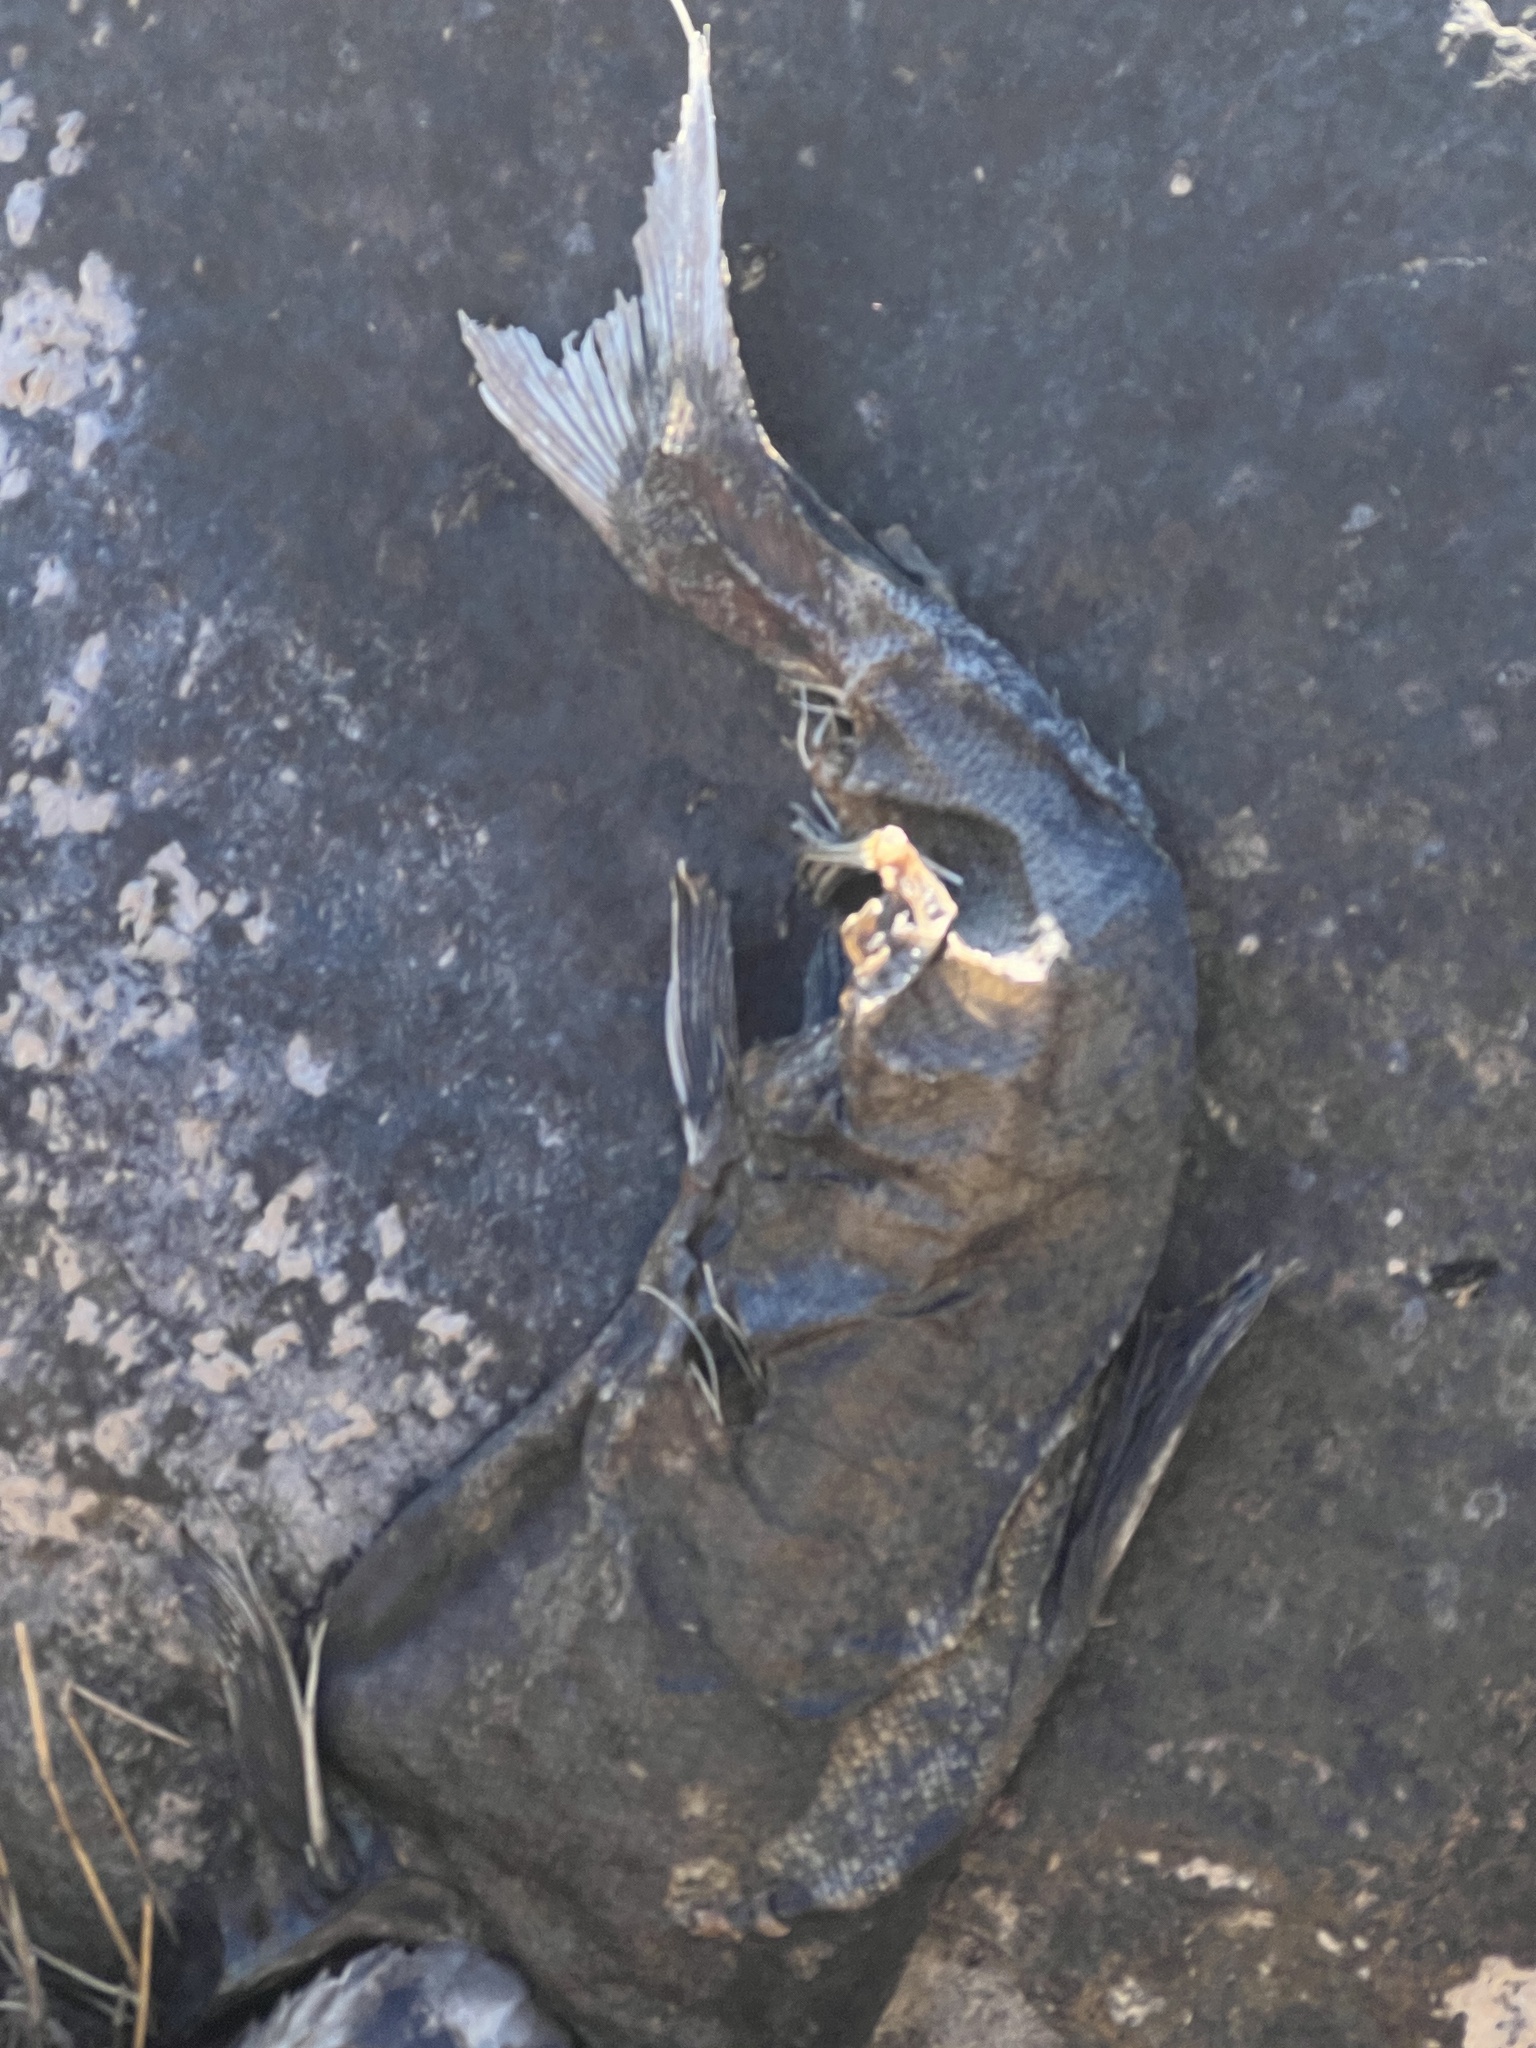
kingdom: Animalia
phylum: Chordata
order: Salmoniformes
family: Salmonidae
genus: Oncorhynchus
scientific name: Oncorhynchus
